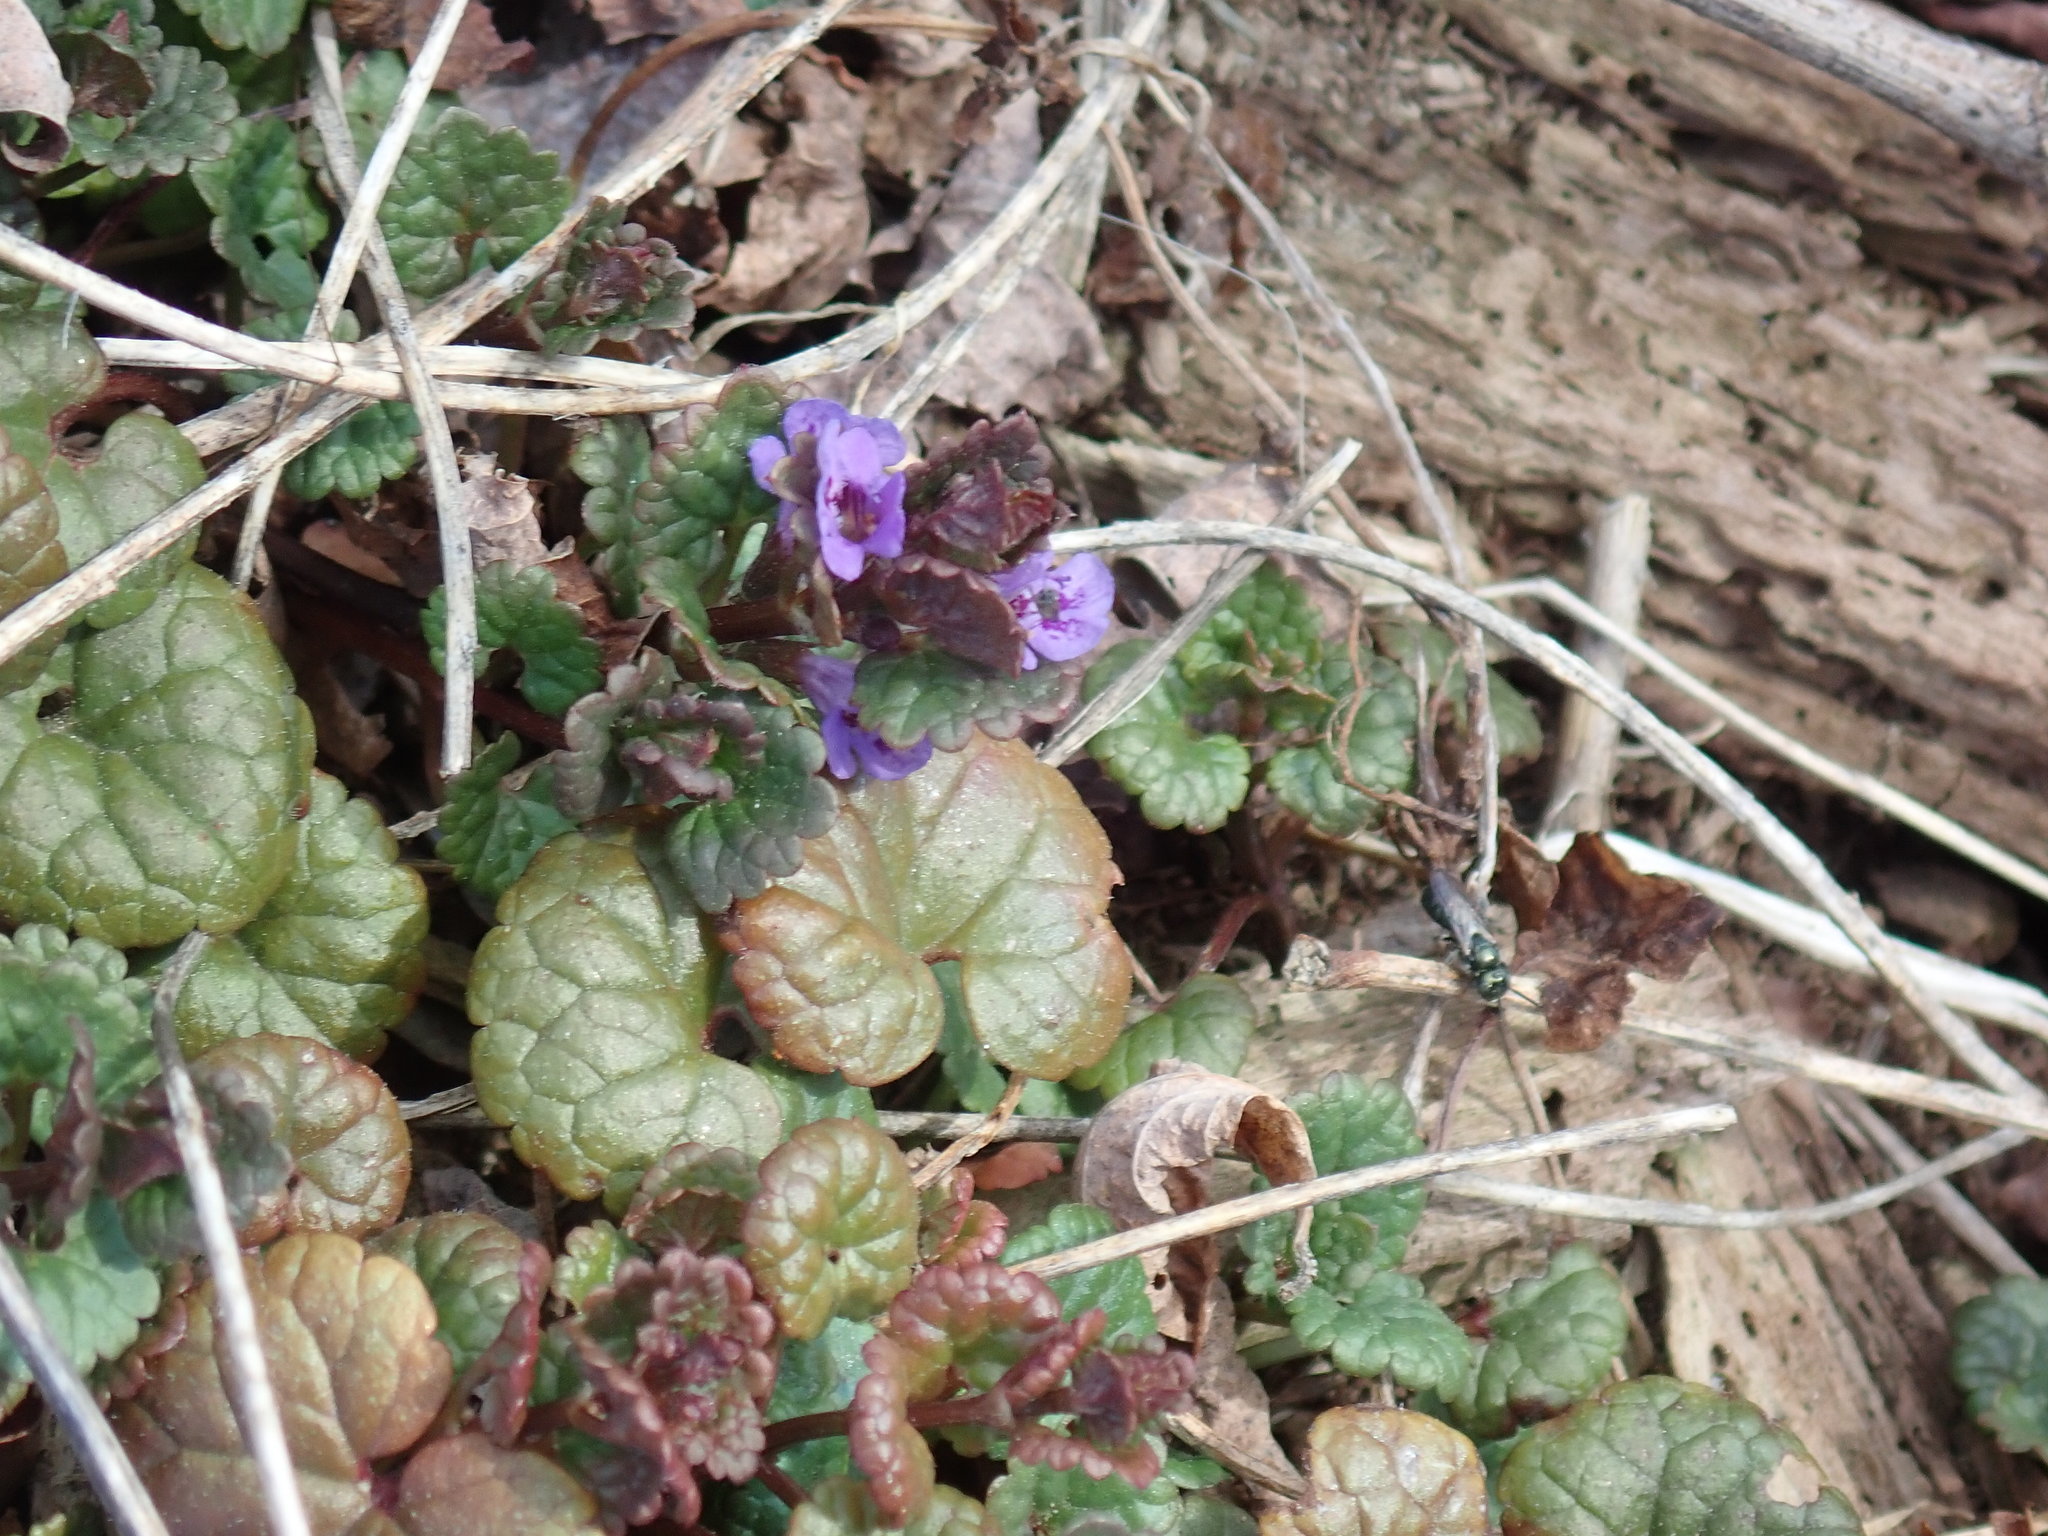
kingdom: Plantae
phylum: Tracheophyta
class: Magnoliopsida
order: Lamiales
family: Lamiaceae
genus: Glechoma
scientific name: Glechoma hederacea
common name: Ground ivy
